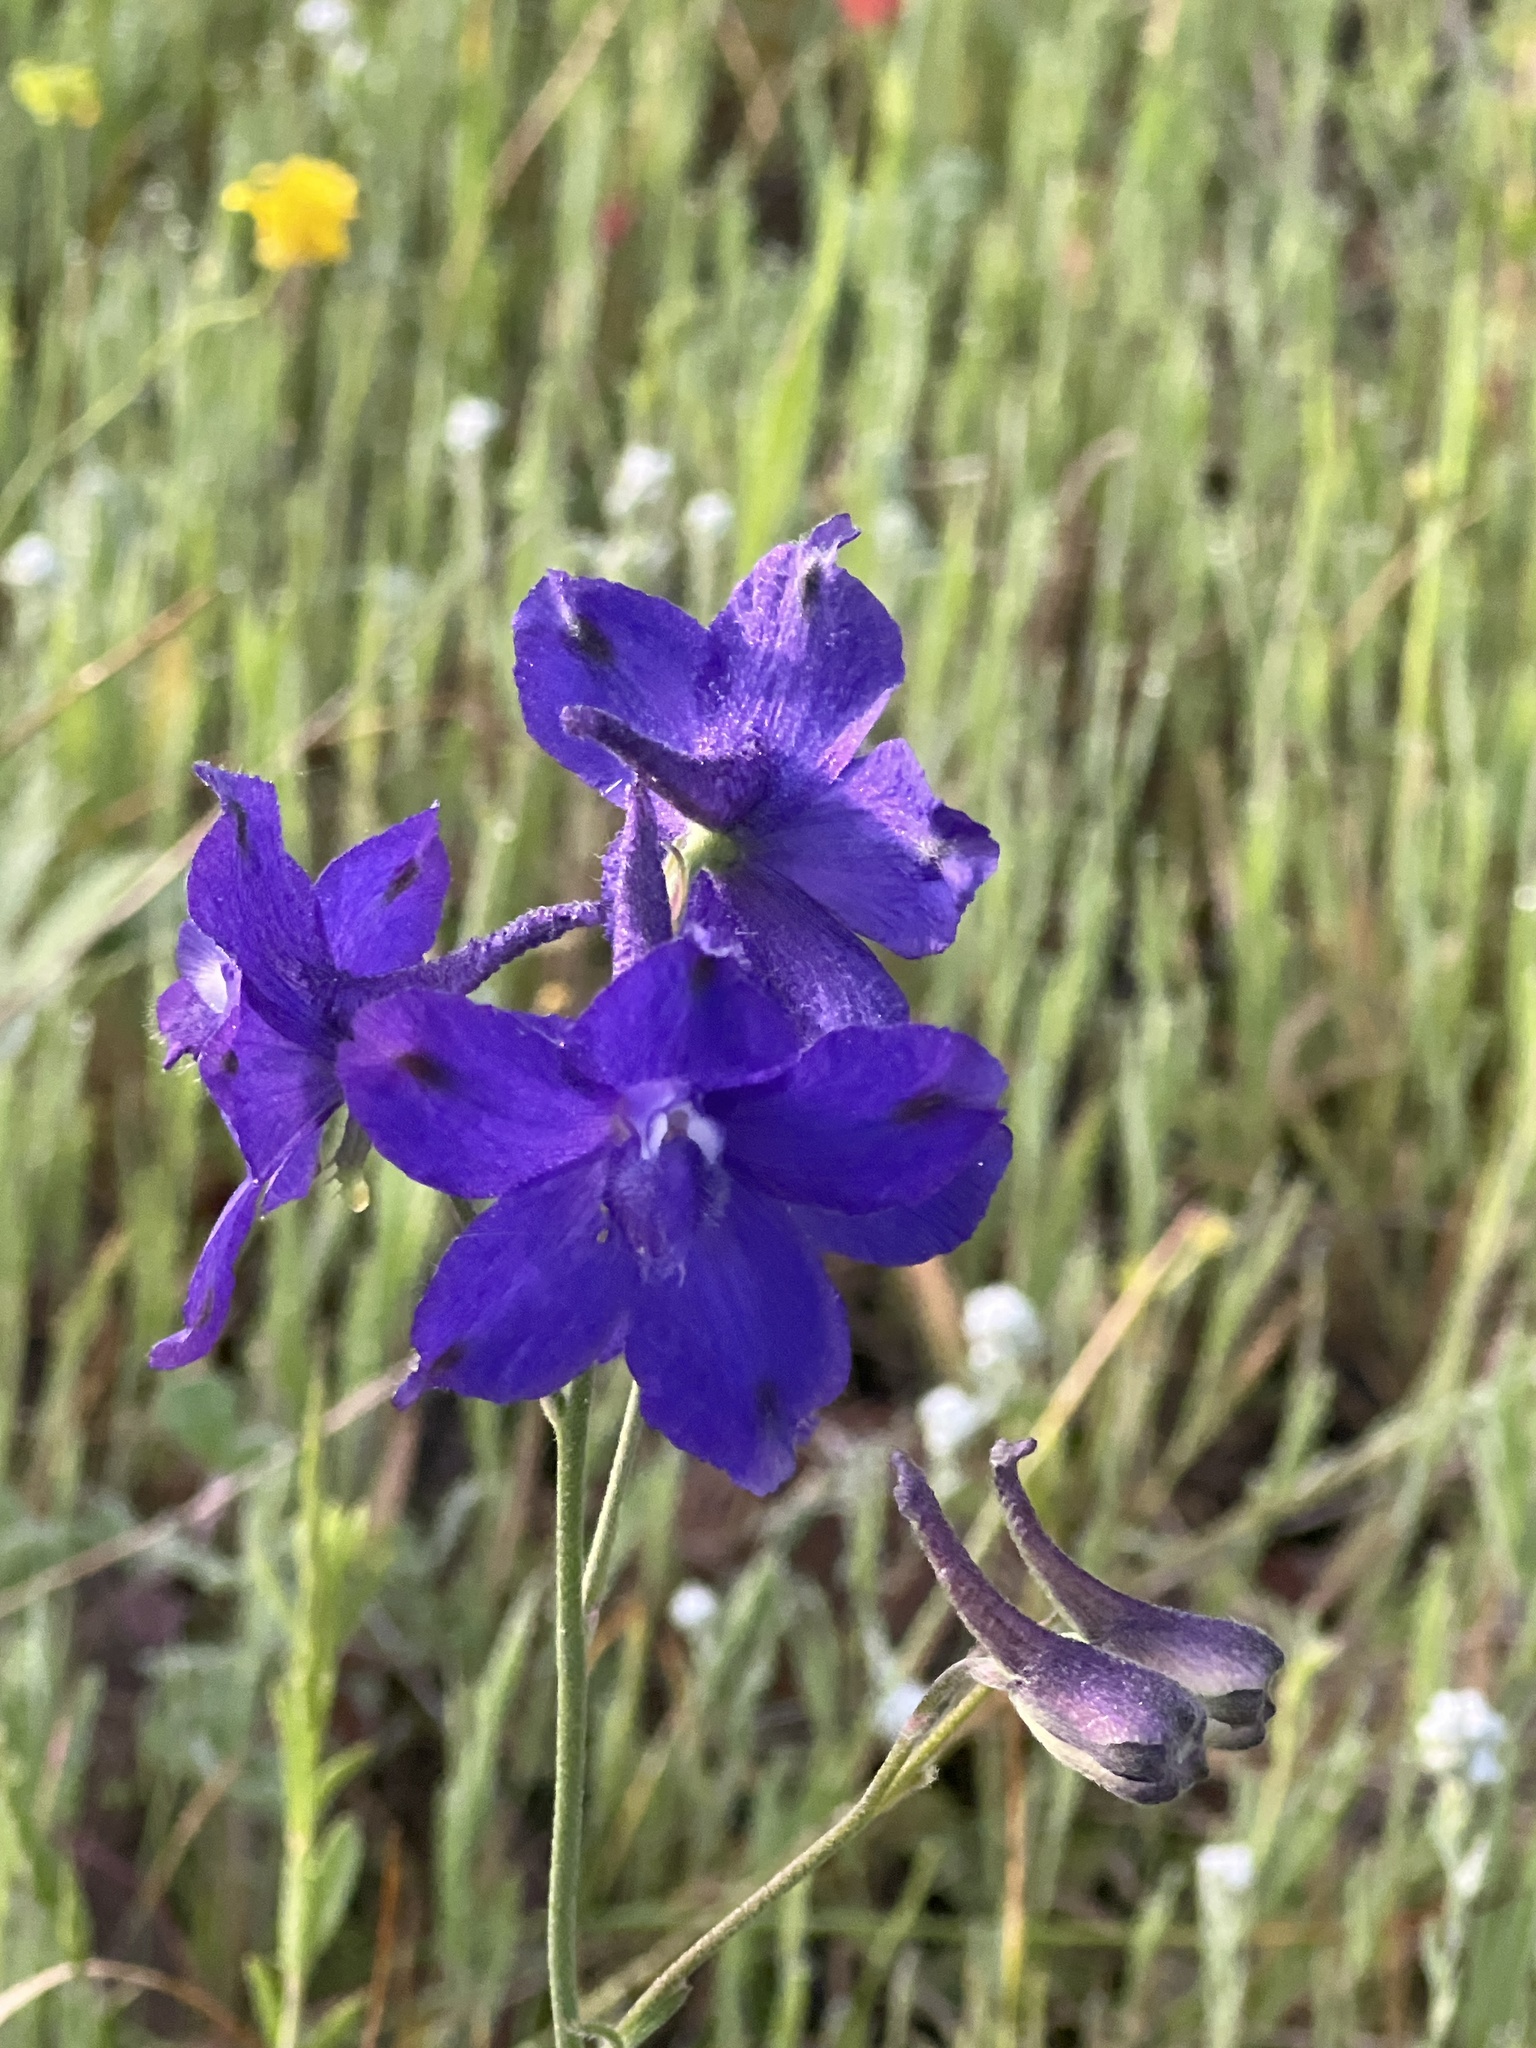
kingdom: Plantae
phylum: Tracheophyta
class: Magnoliopsida
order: Ranunculales
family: Ranunculaceae
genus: Delphinium
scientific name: Delphinium variegatum
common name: Royal larkspur
